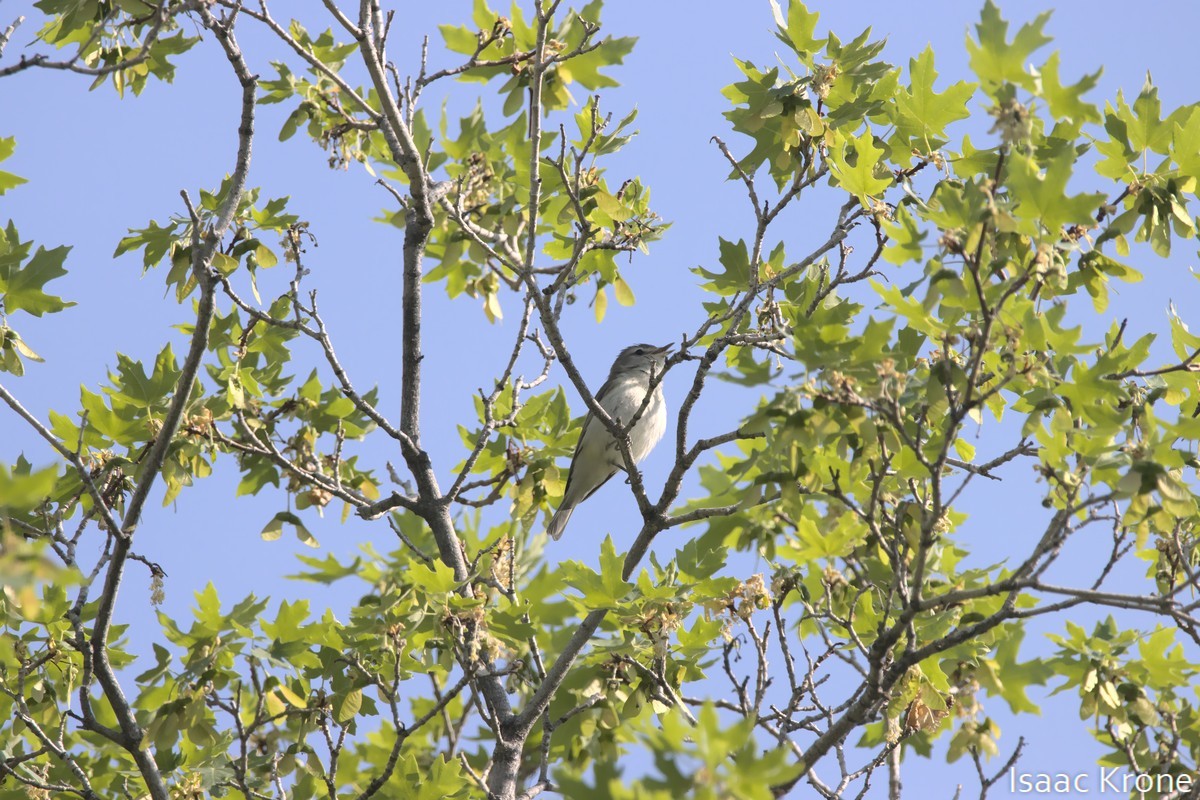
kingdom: Animalia
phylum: Chordata
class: Aves
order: Passeriformes
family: Vireonidae
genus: Vireo
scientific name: Vireo gilvus
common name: Warbling vireo
